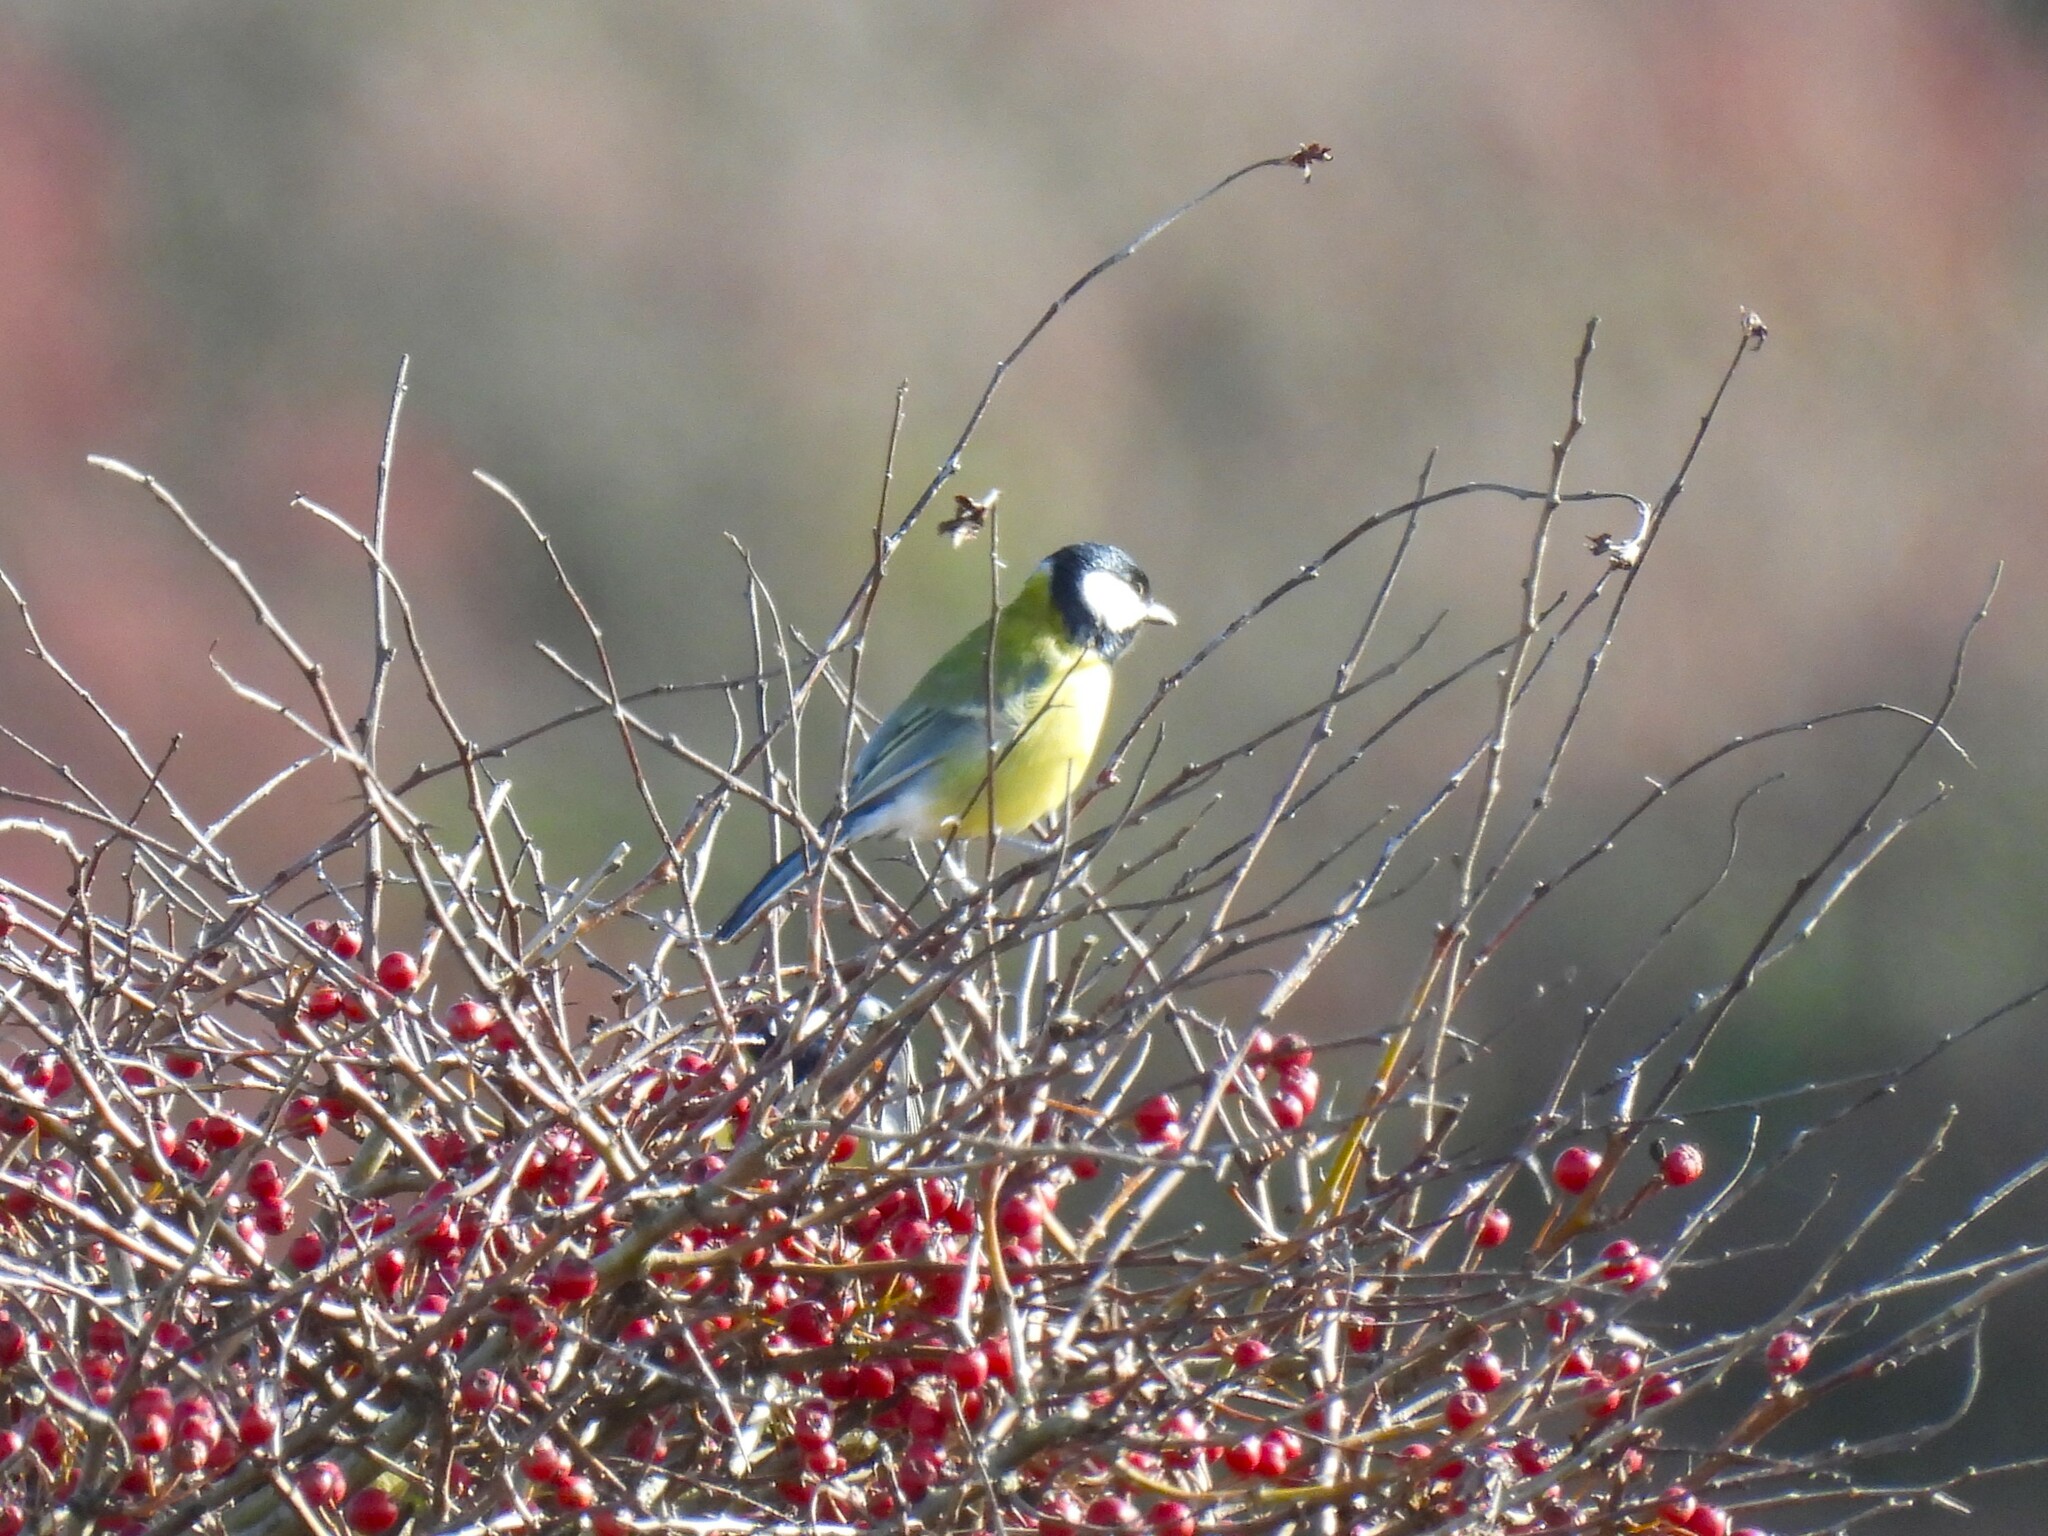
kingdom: Animalia
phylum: Chordata
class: Aves
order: Passeriformes
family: Paridae
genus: Parus
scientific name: Parus major
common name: Great tit
